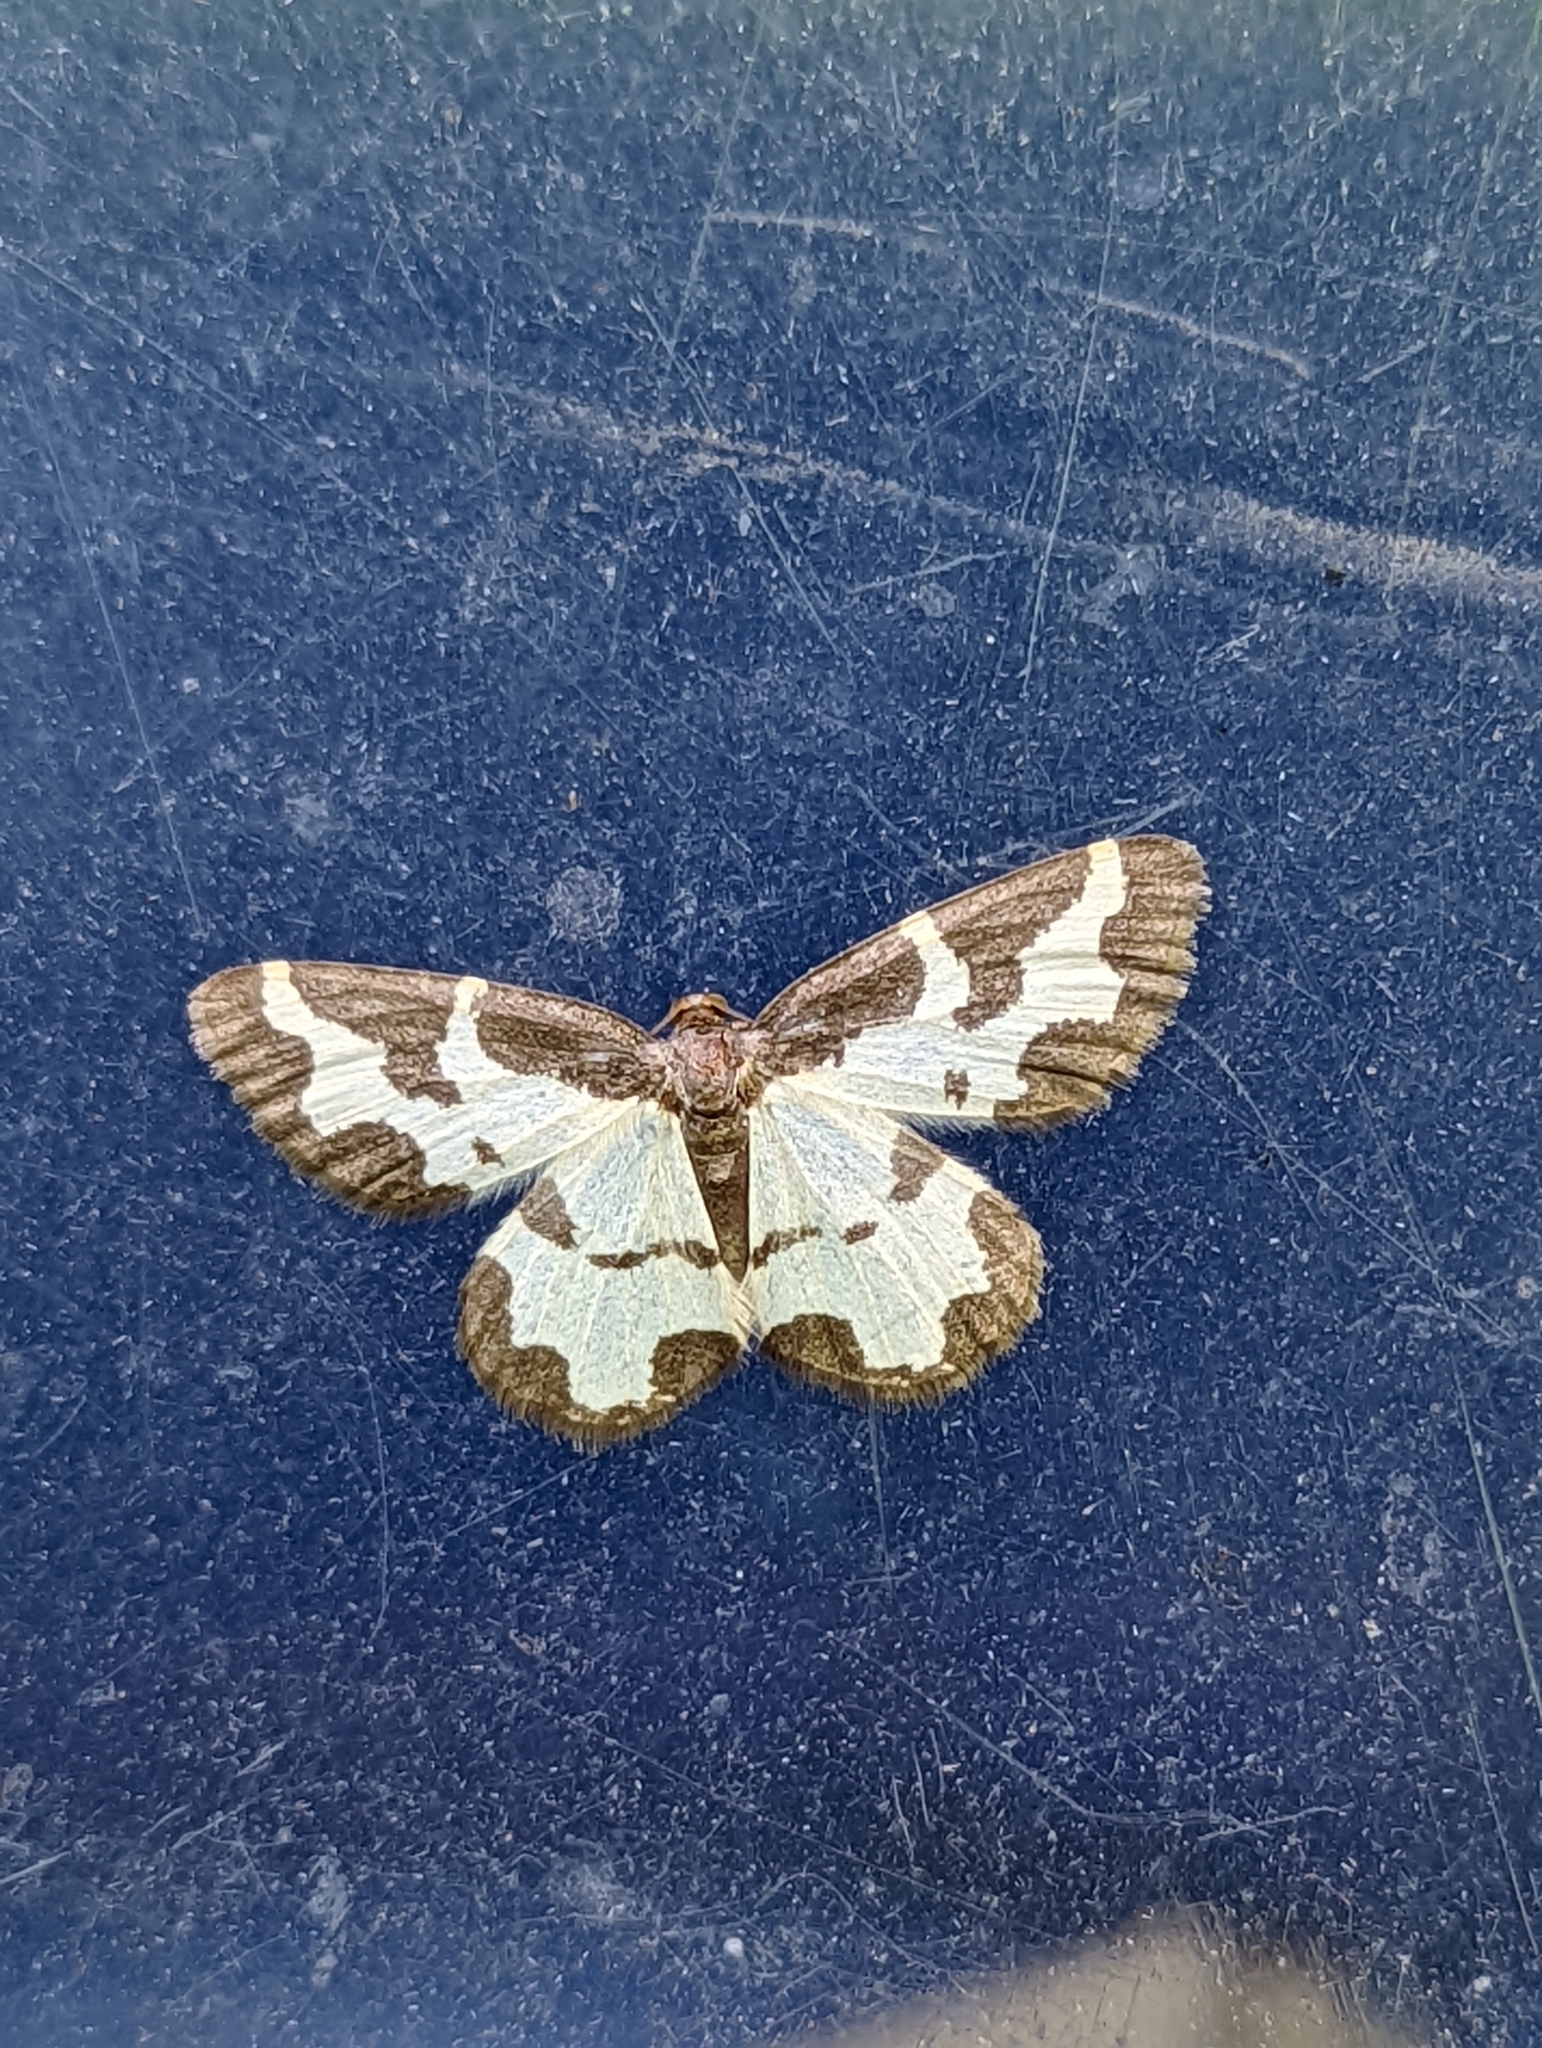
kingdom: Animalia
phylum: Arthropoda
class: Insecta
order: Lepidoptera
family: Geometridae
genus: Lomaspilis
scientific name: Lomaspilis marginata
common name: Clouded border
